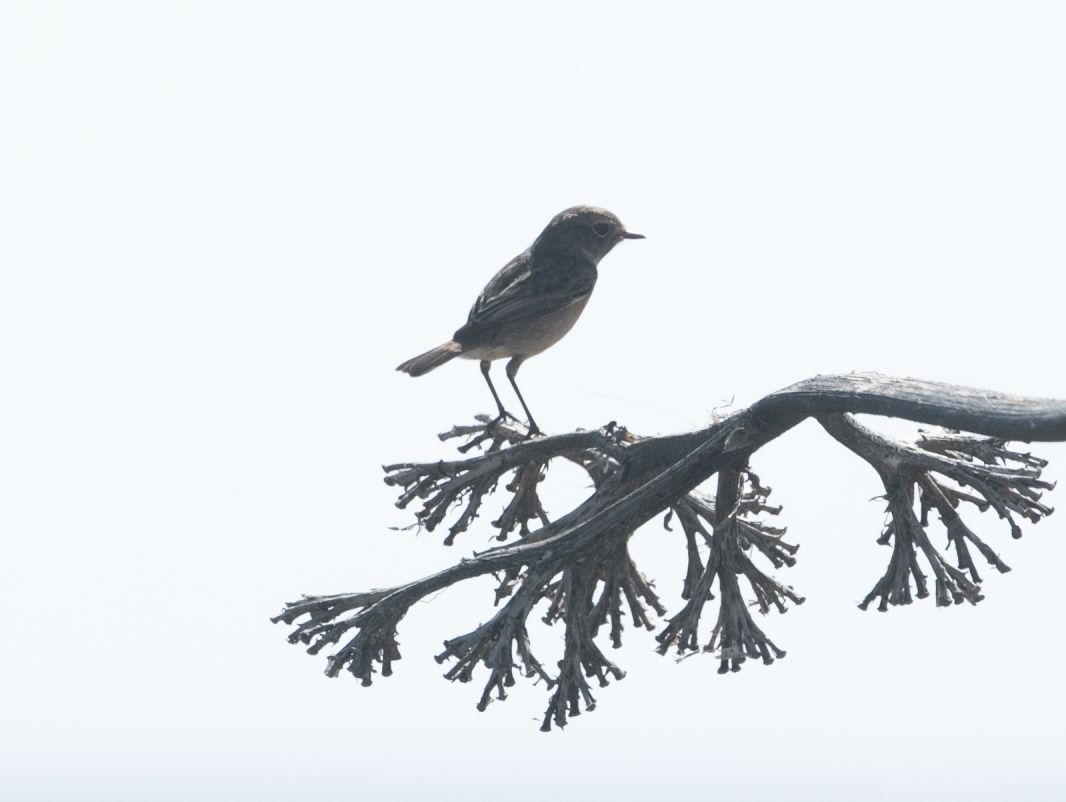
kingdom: Animalia
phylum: Chordata
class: Aves
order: Passeriformes
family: Muscicapidae
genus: Saxicola
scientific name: Saxicola rubicola
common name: European stonechat
